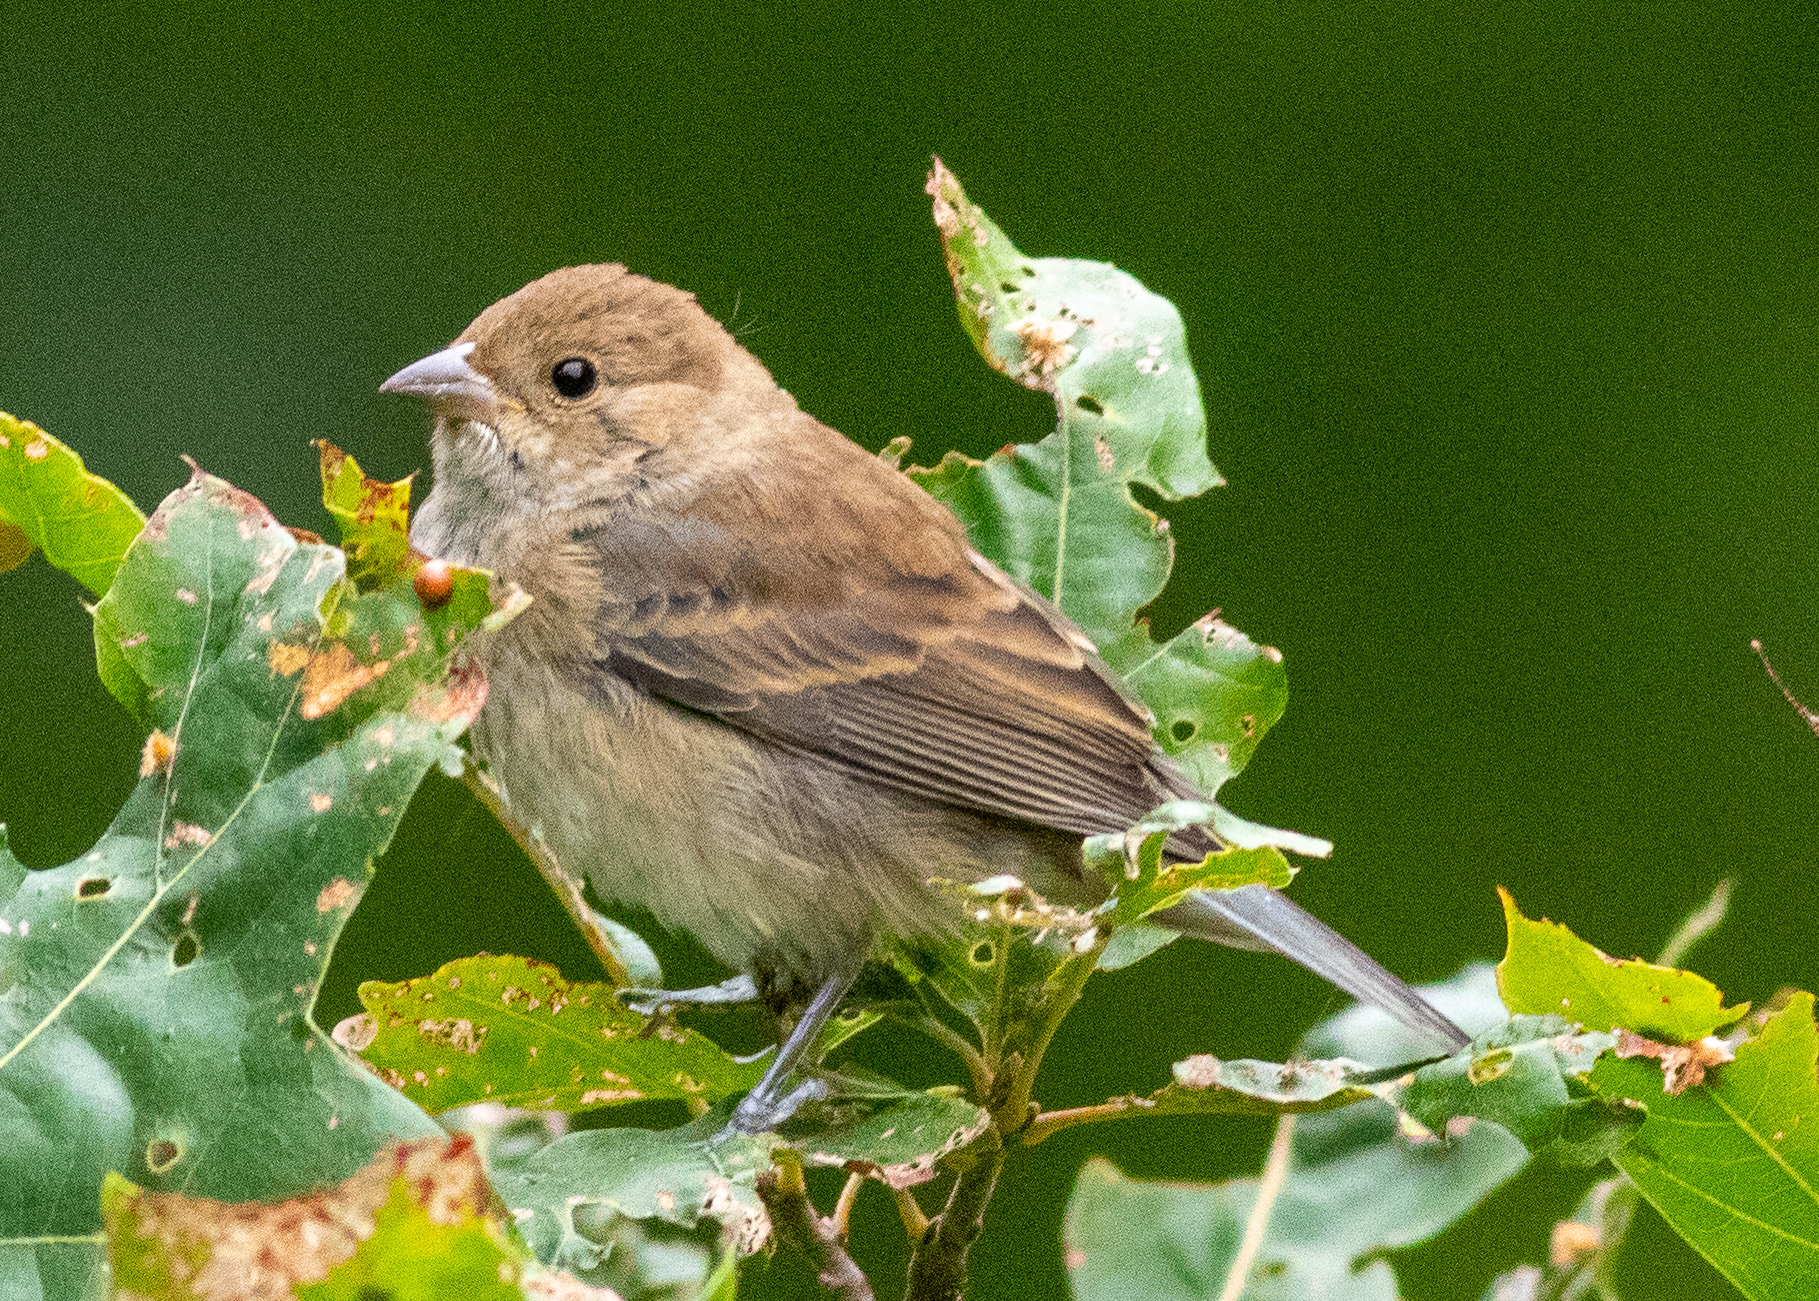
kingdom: Animalia
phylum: Chordata
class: Aves
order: Passeriformes
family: Cardinalidae
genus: Passerina
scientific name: Passerina cyanea
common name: Indigo bunting
